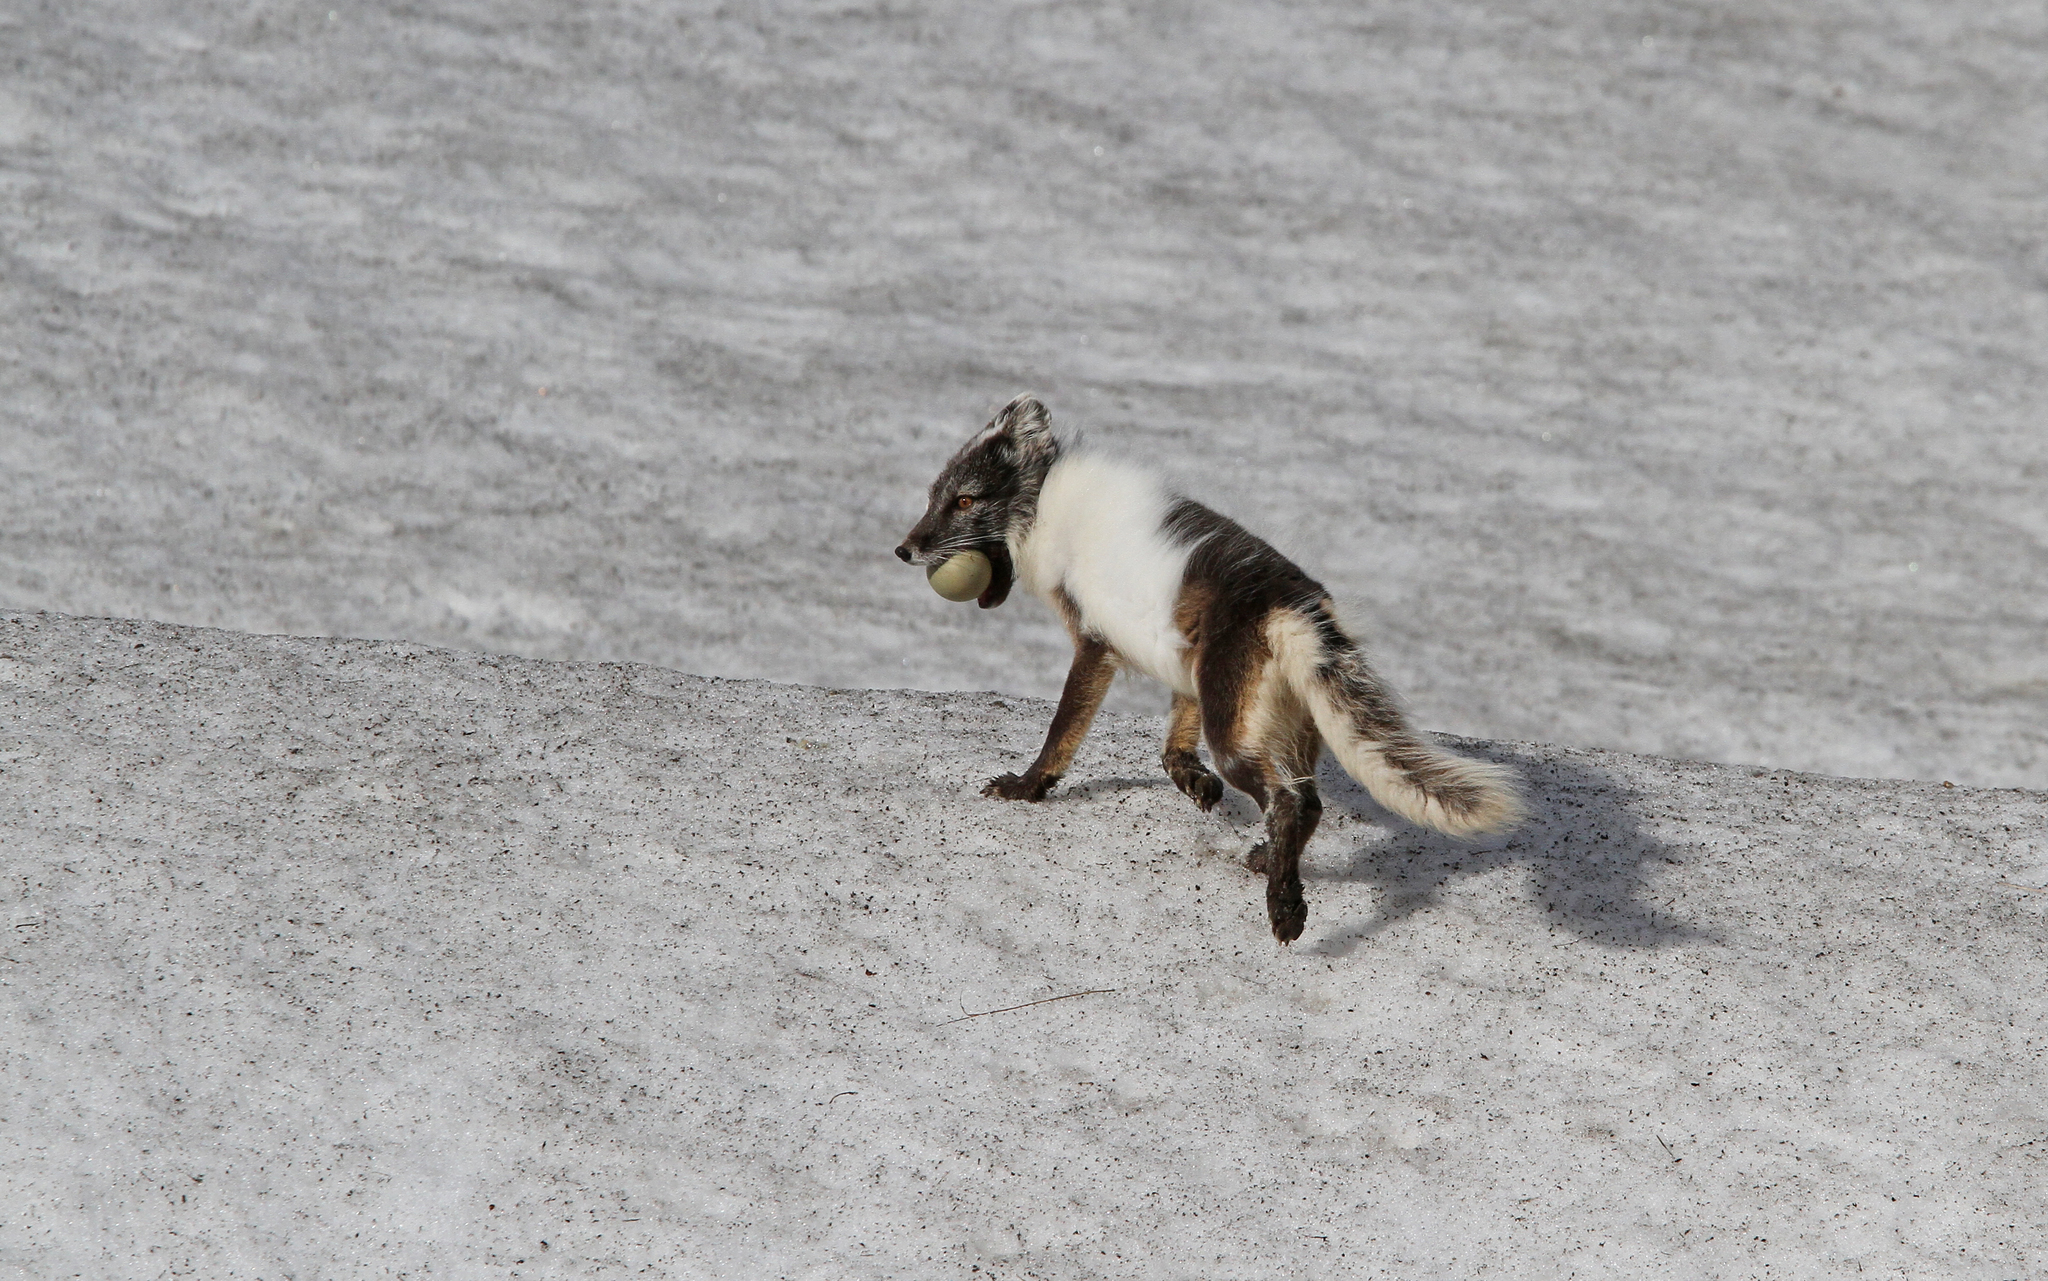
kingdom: Animalia
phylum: Chordata
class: Mammalia
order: Carnivora
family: Canidae
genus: Vulpes
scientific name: Vulpes lagopus
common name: Arctic fox
